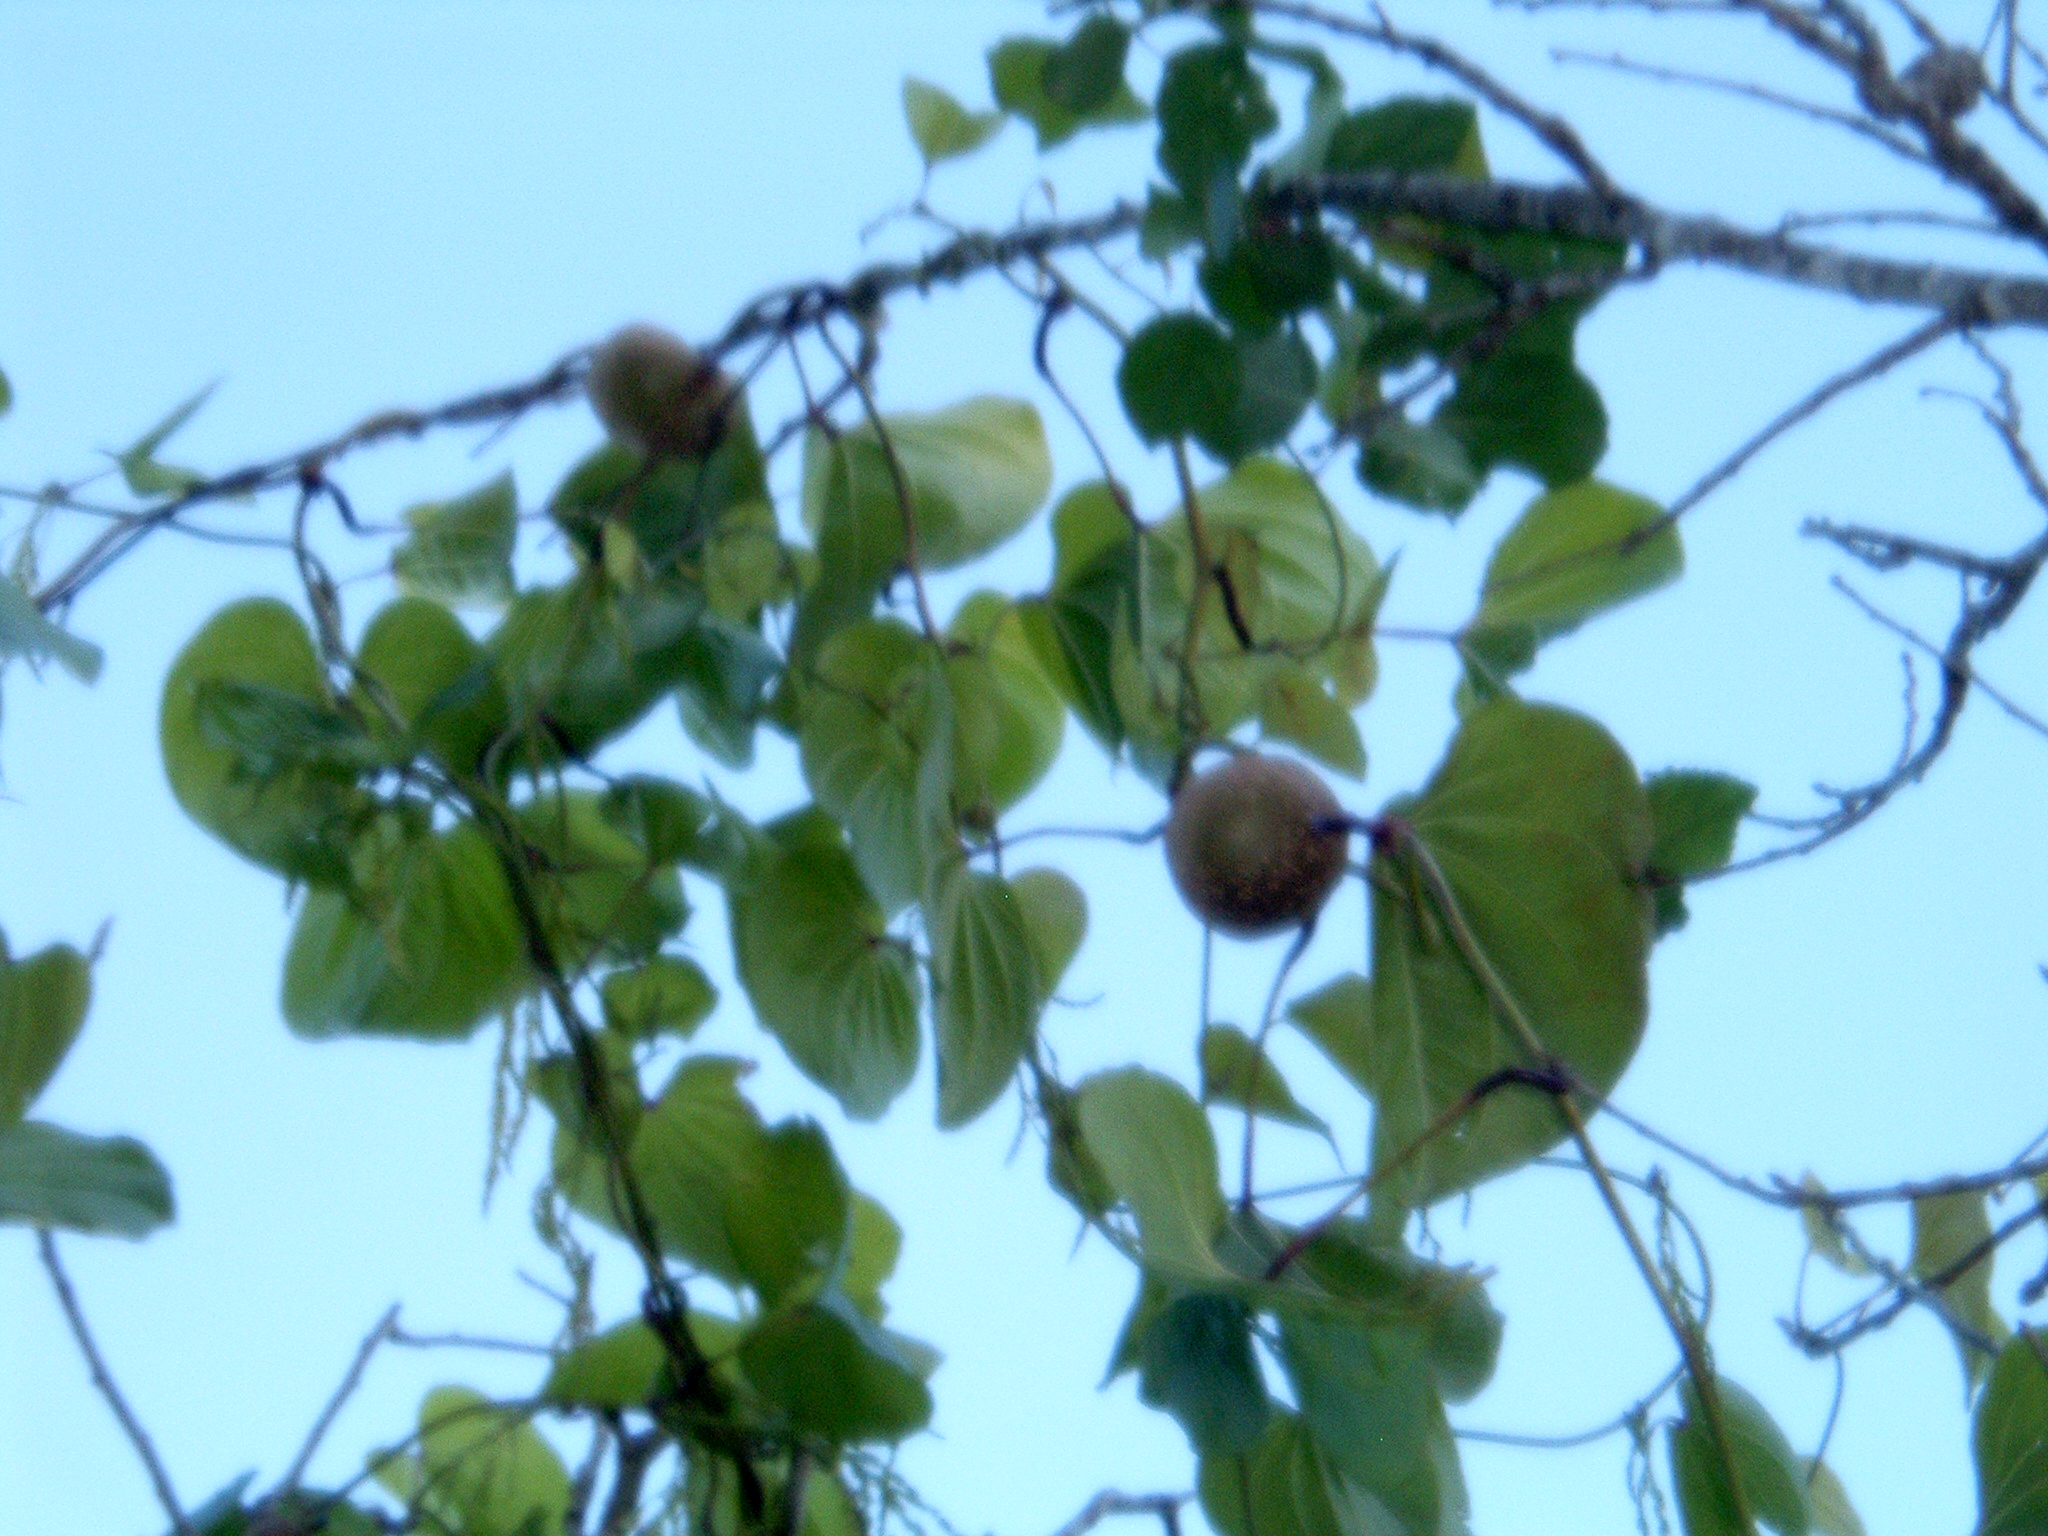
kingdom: Plantae
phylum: Tracheophyta
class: Liliopsida
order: Dioscoreales
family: Dioscoreaceae
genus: Dioscorea
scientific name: Dioscorea bulbifera
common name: Air yam
